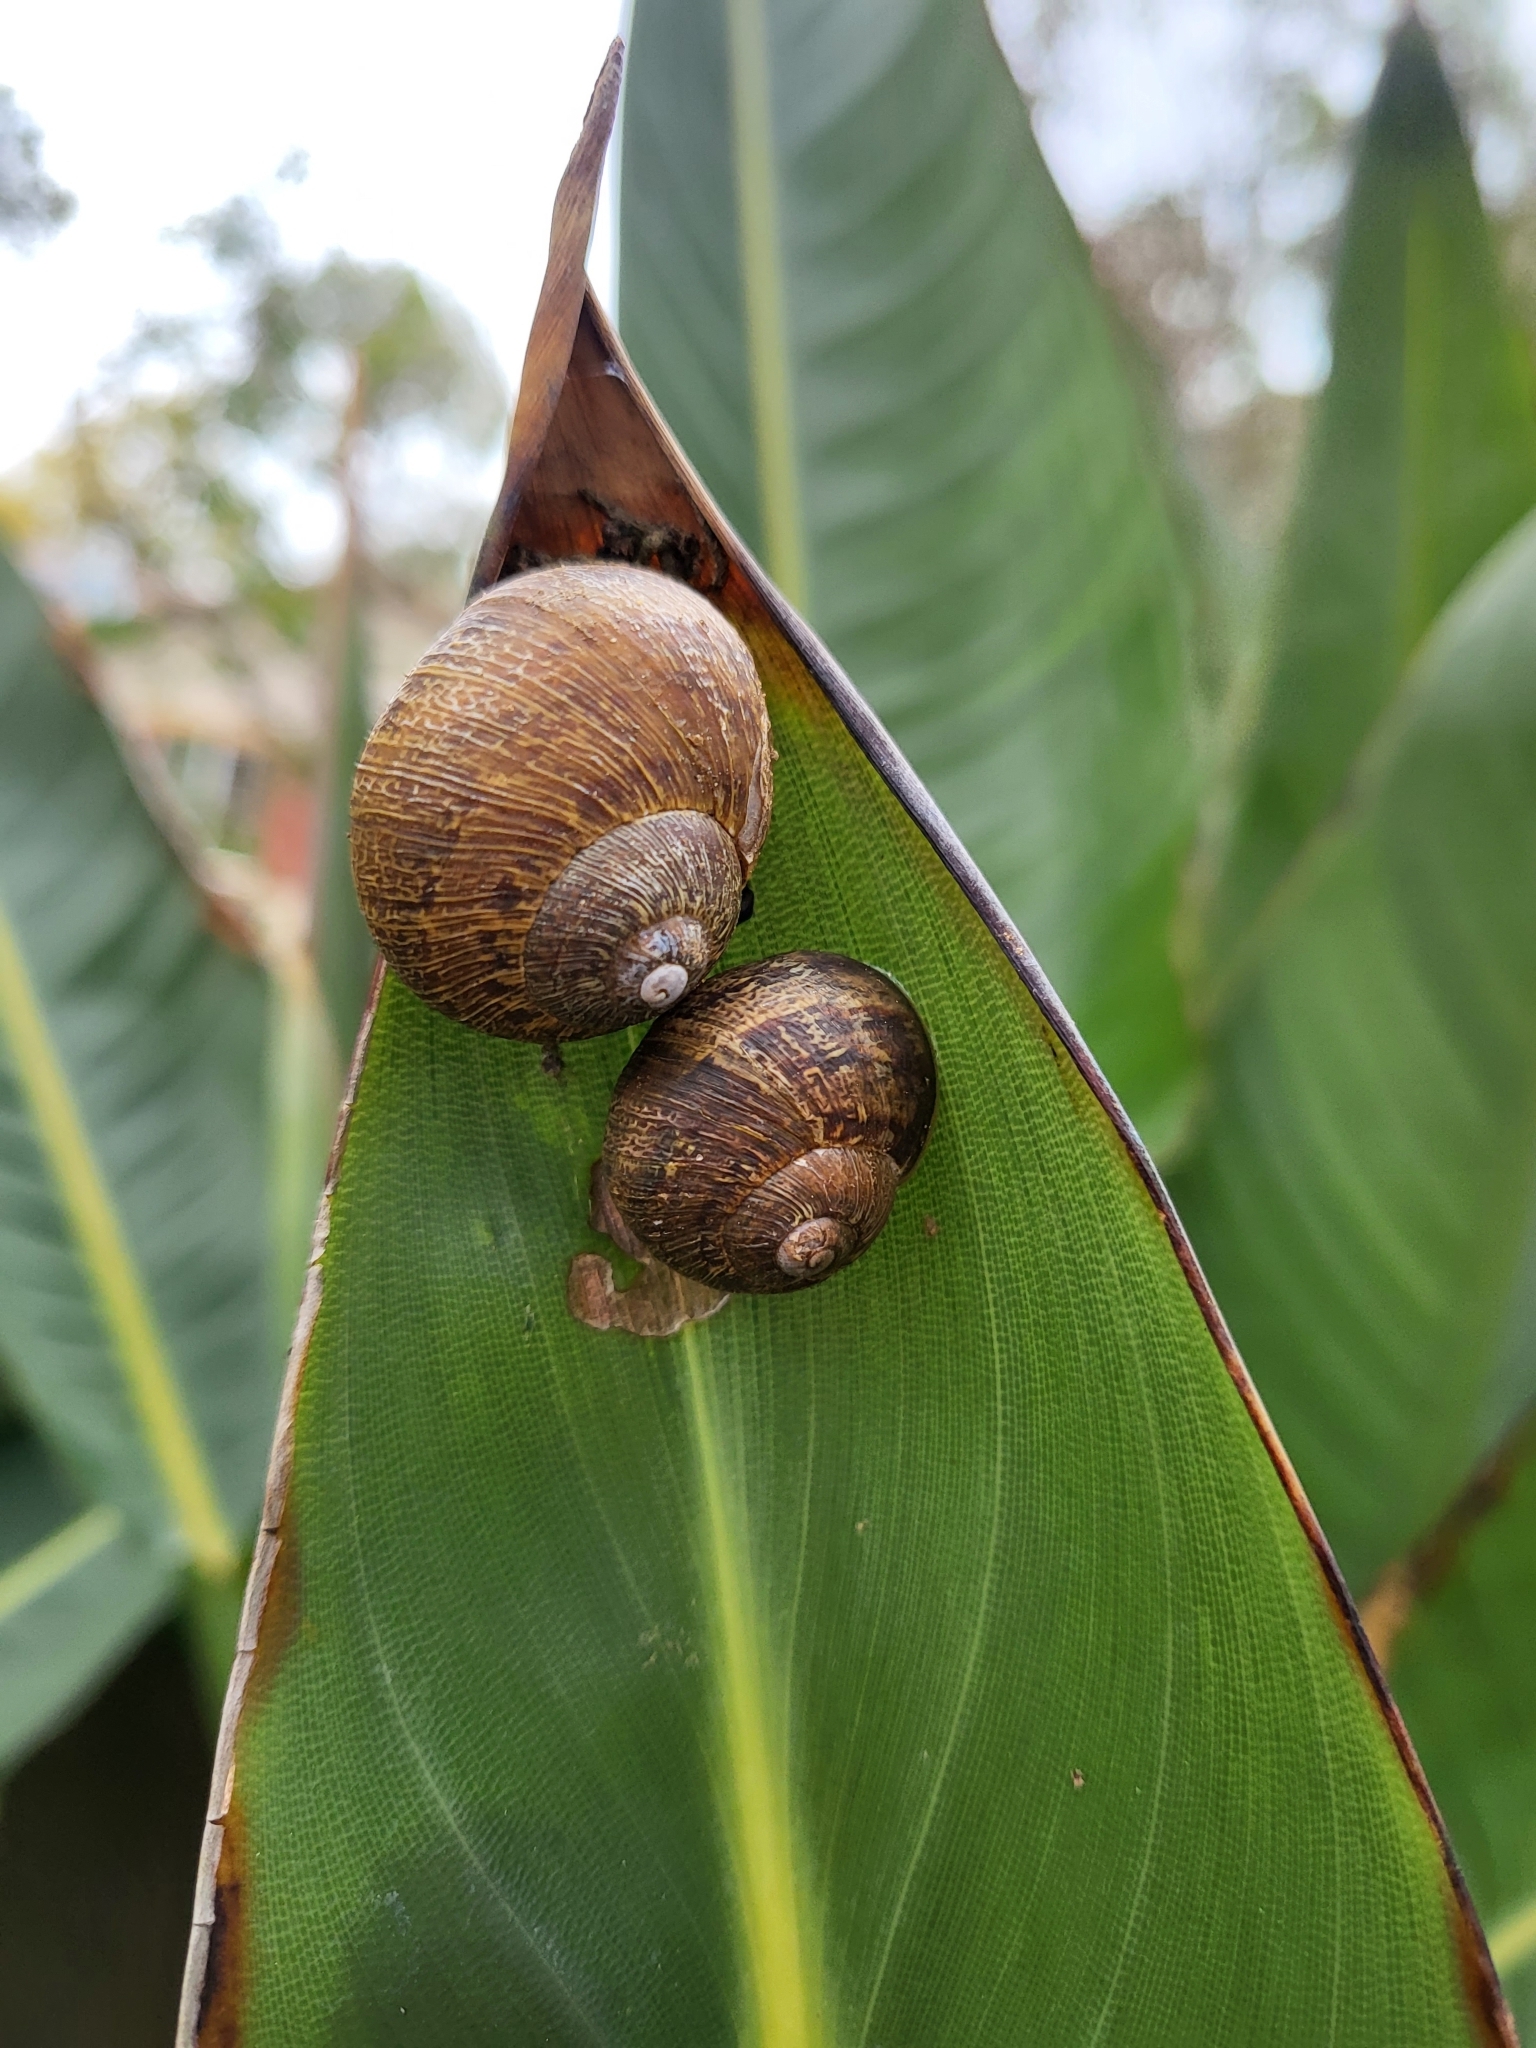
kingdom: Animalia
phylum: Mollusca
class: Gastropoda
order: Stylommatophora
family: Helicidae
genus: Cornu
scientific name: Cornu aspersum
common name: Brown garden snail
